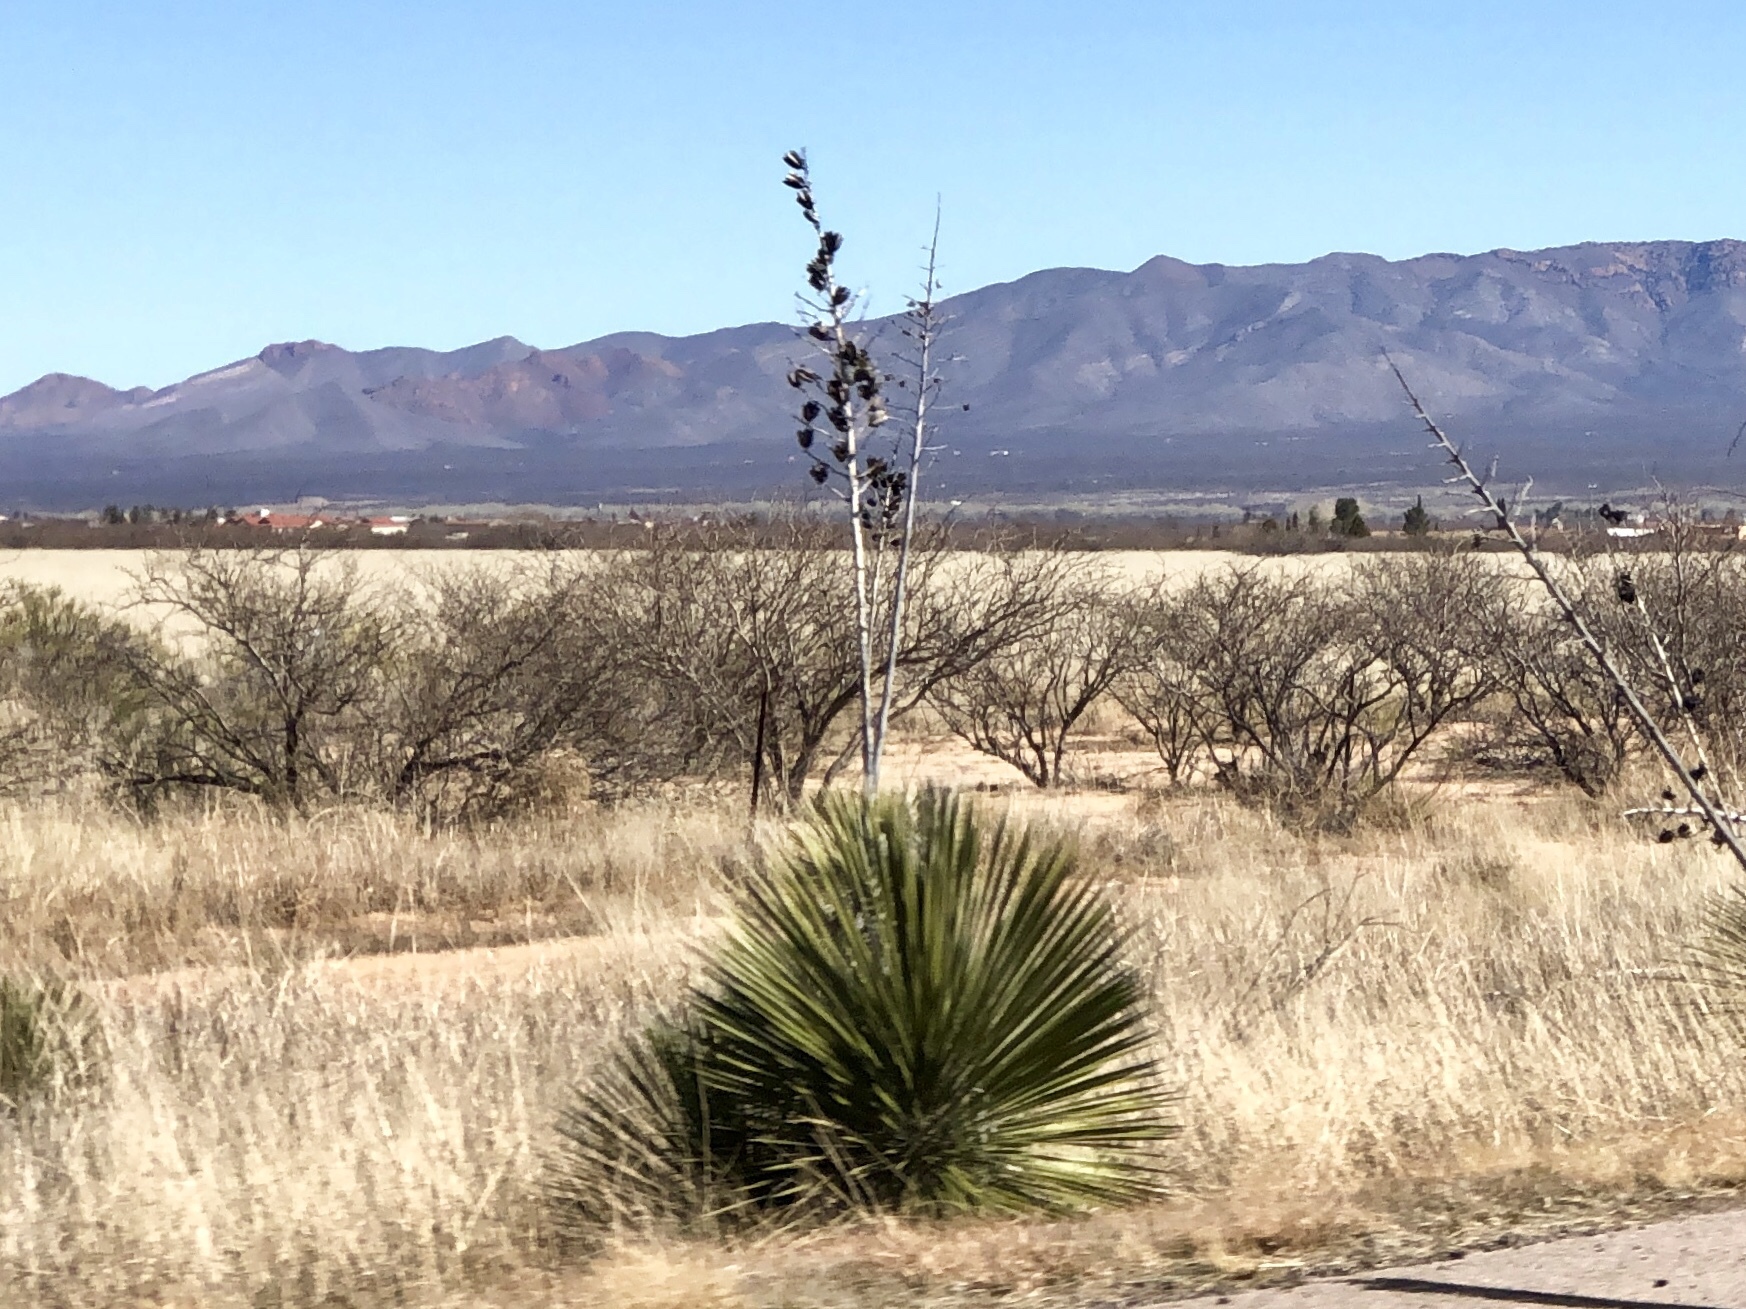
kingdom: Plantae
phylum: Tracheophyta
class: Liliopsida
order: Asparagales
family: Asparagaceae
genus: Yucca
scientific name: Yucca elata
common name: Palmella
